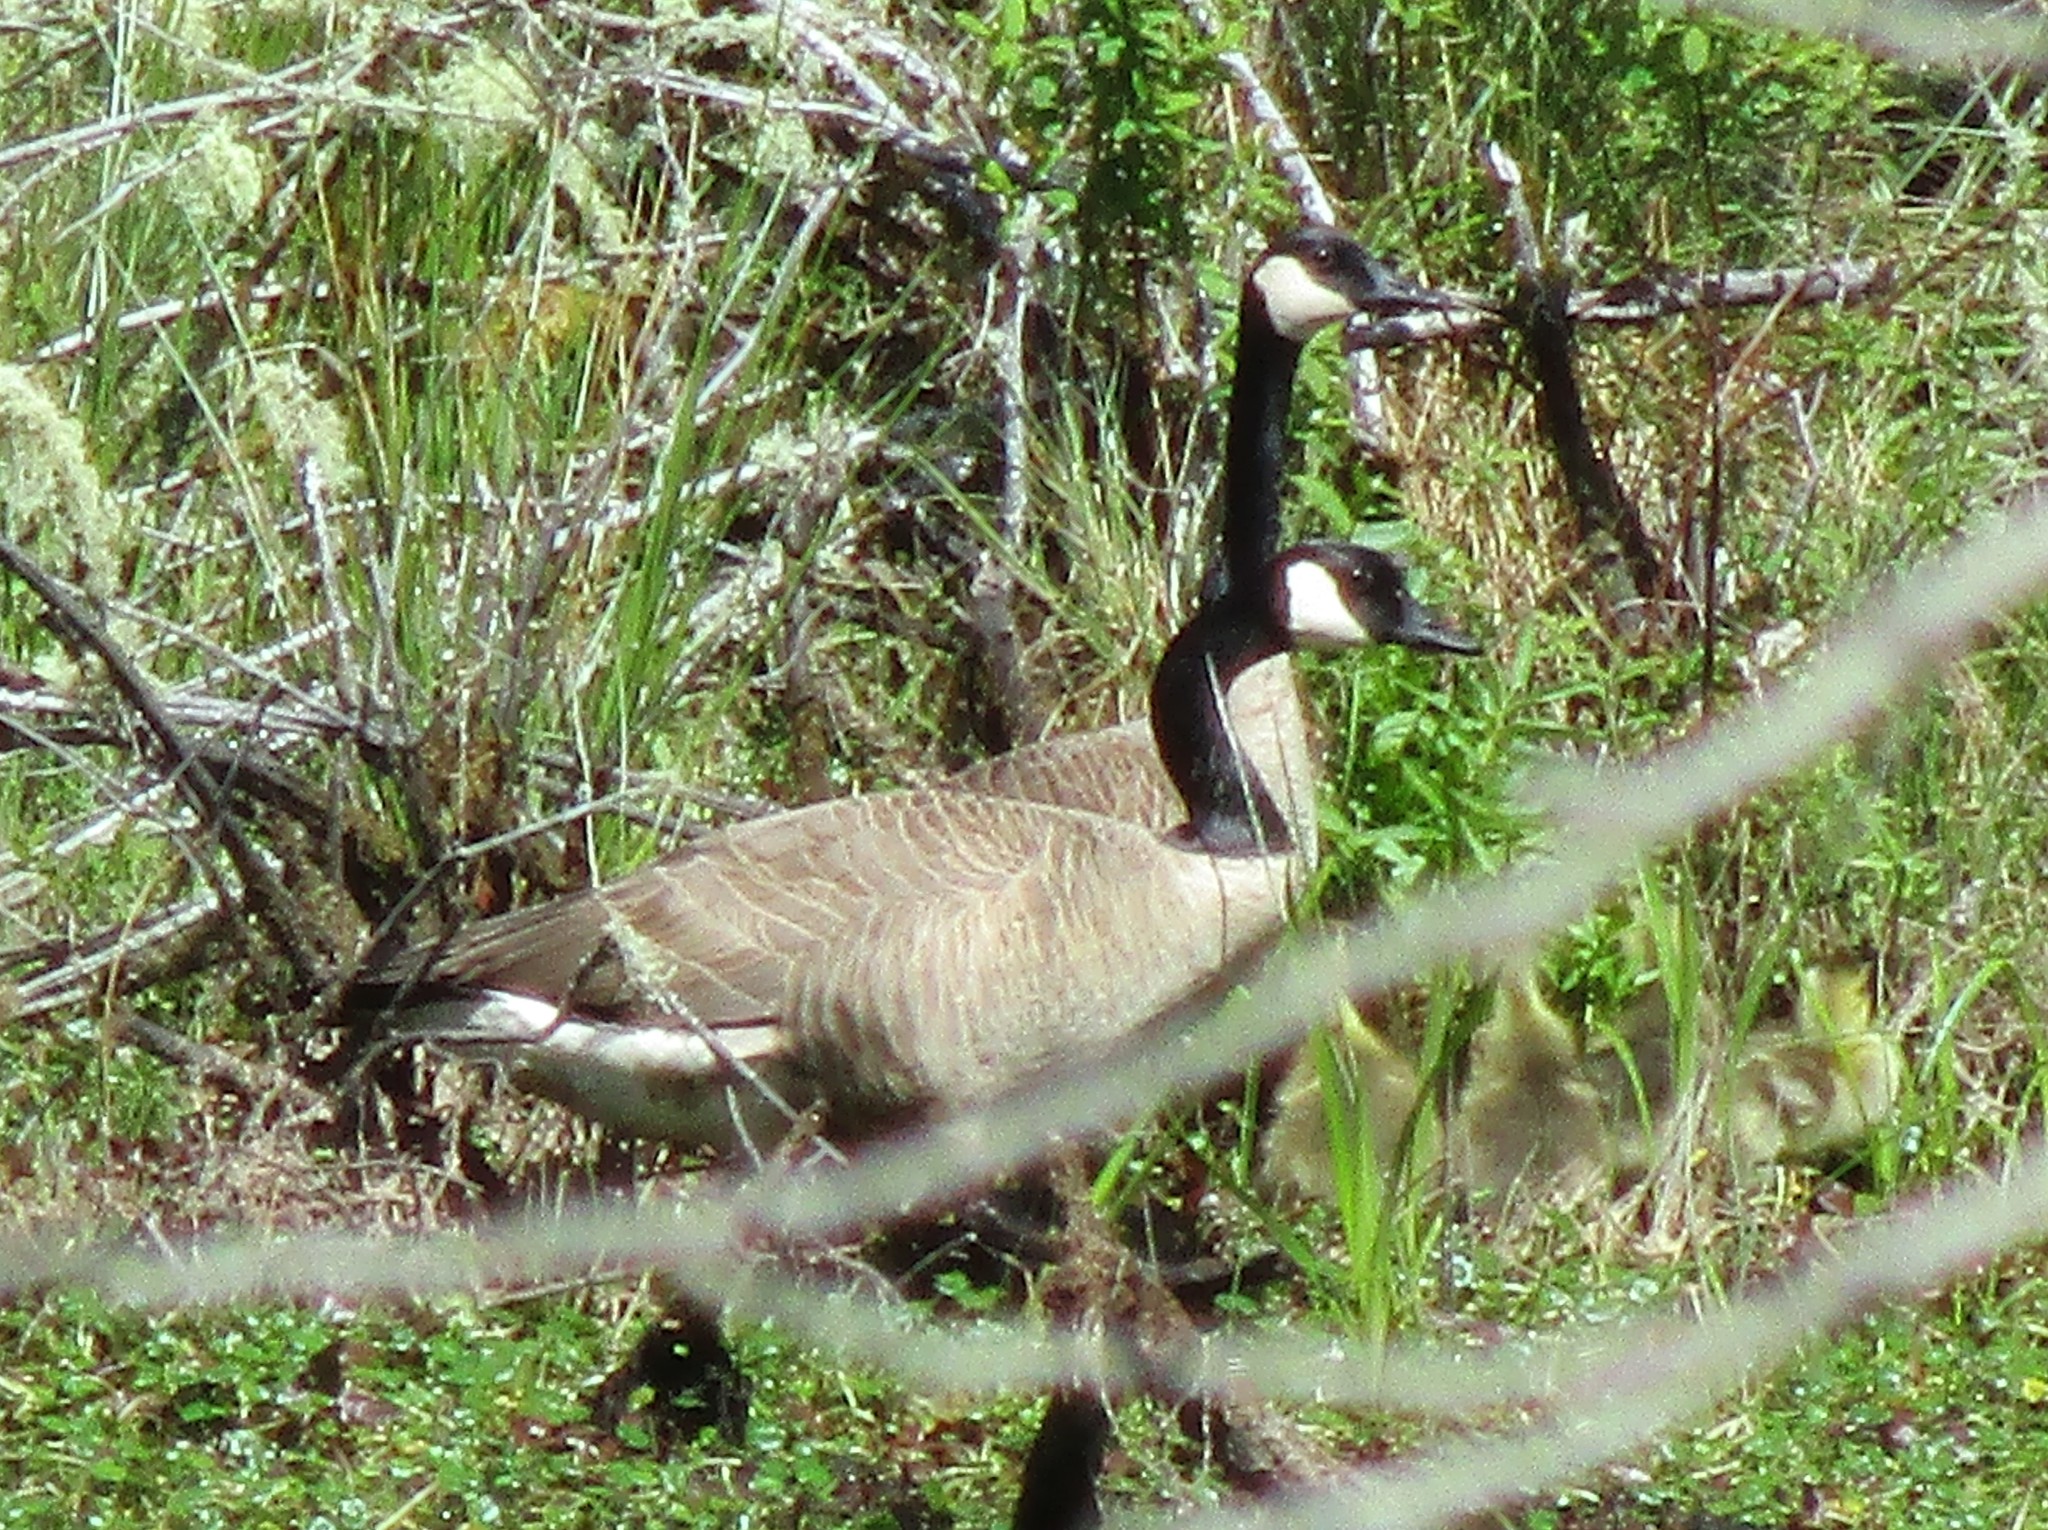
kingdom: Animalia
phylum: Chordata
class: Aves
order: Anseriformes
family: Anatidae
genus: Branta
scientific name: Branta canadensis
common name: Canada goose
